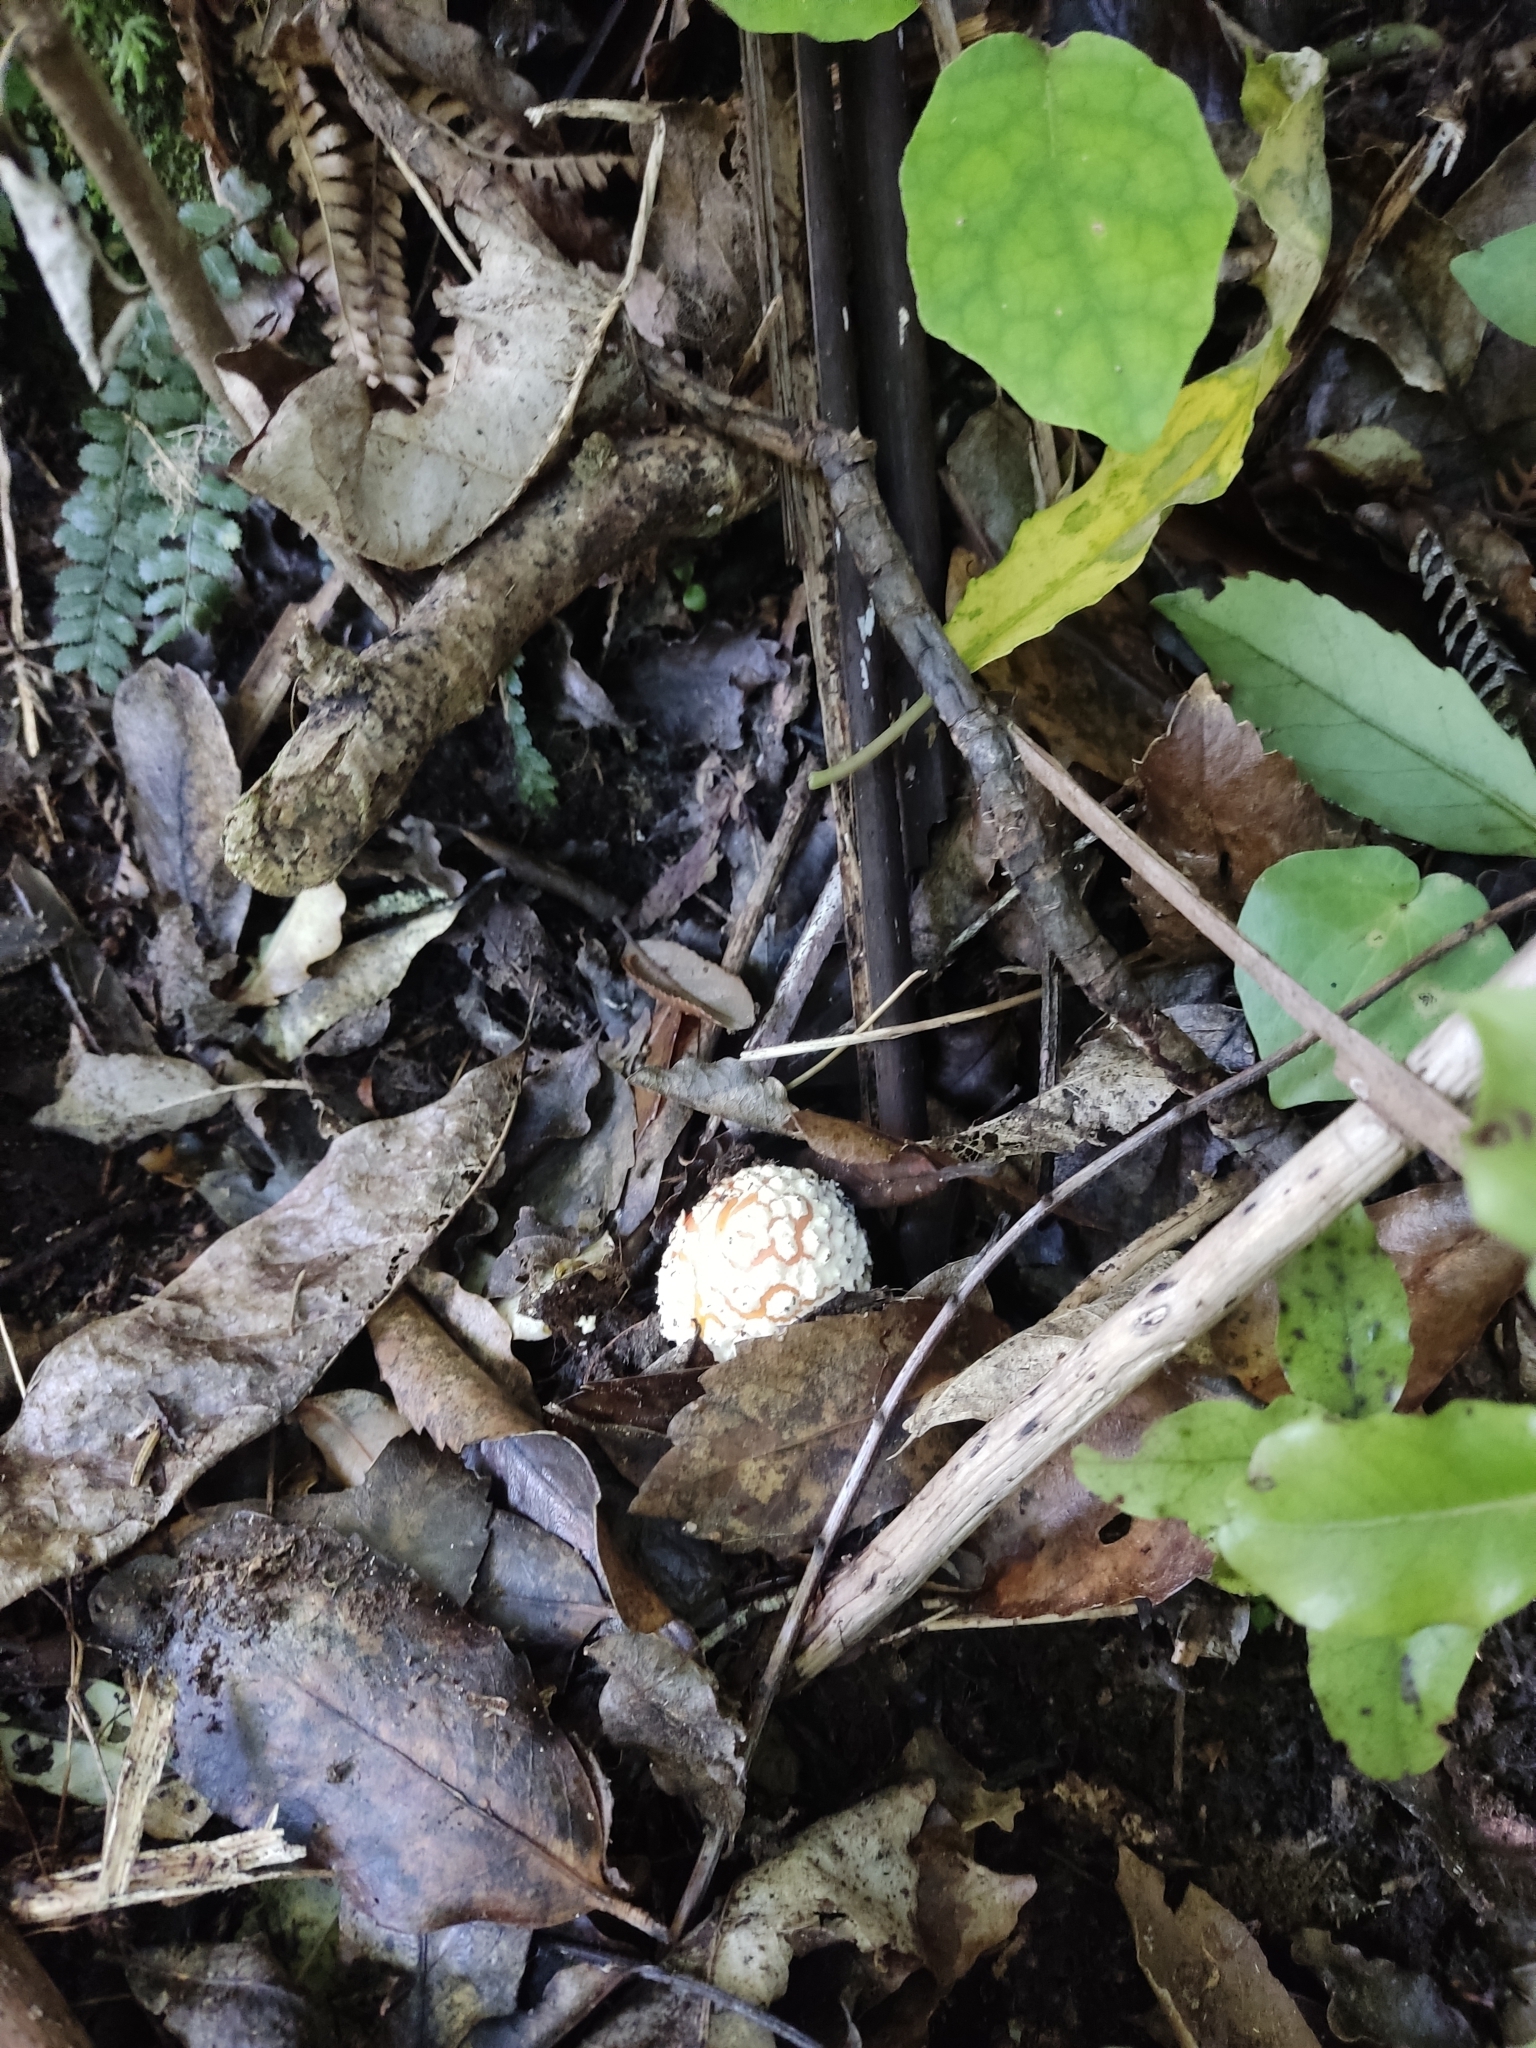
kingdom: Fungi
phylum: Basidiomycota
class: Agaricomycetes
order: Agaricales
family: Amanitaceae
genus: Amanita
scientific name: Amanita muscaria
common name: Fly agaric
